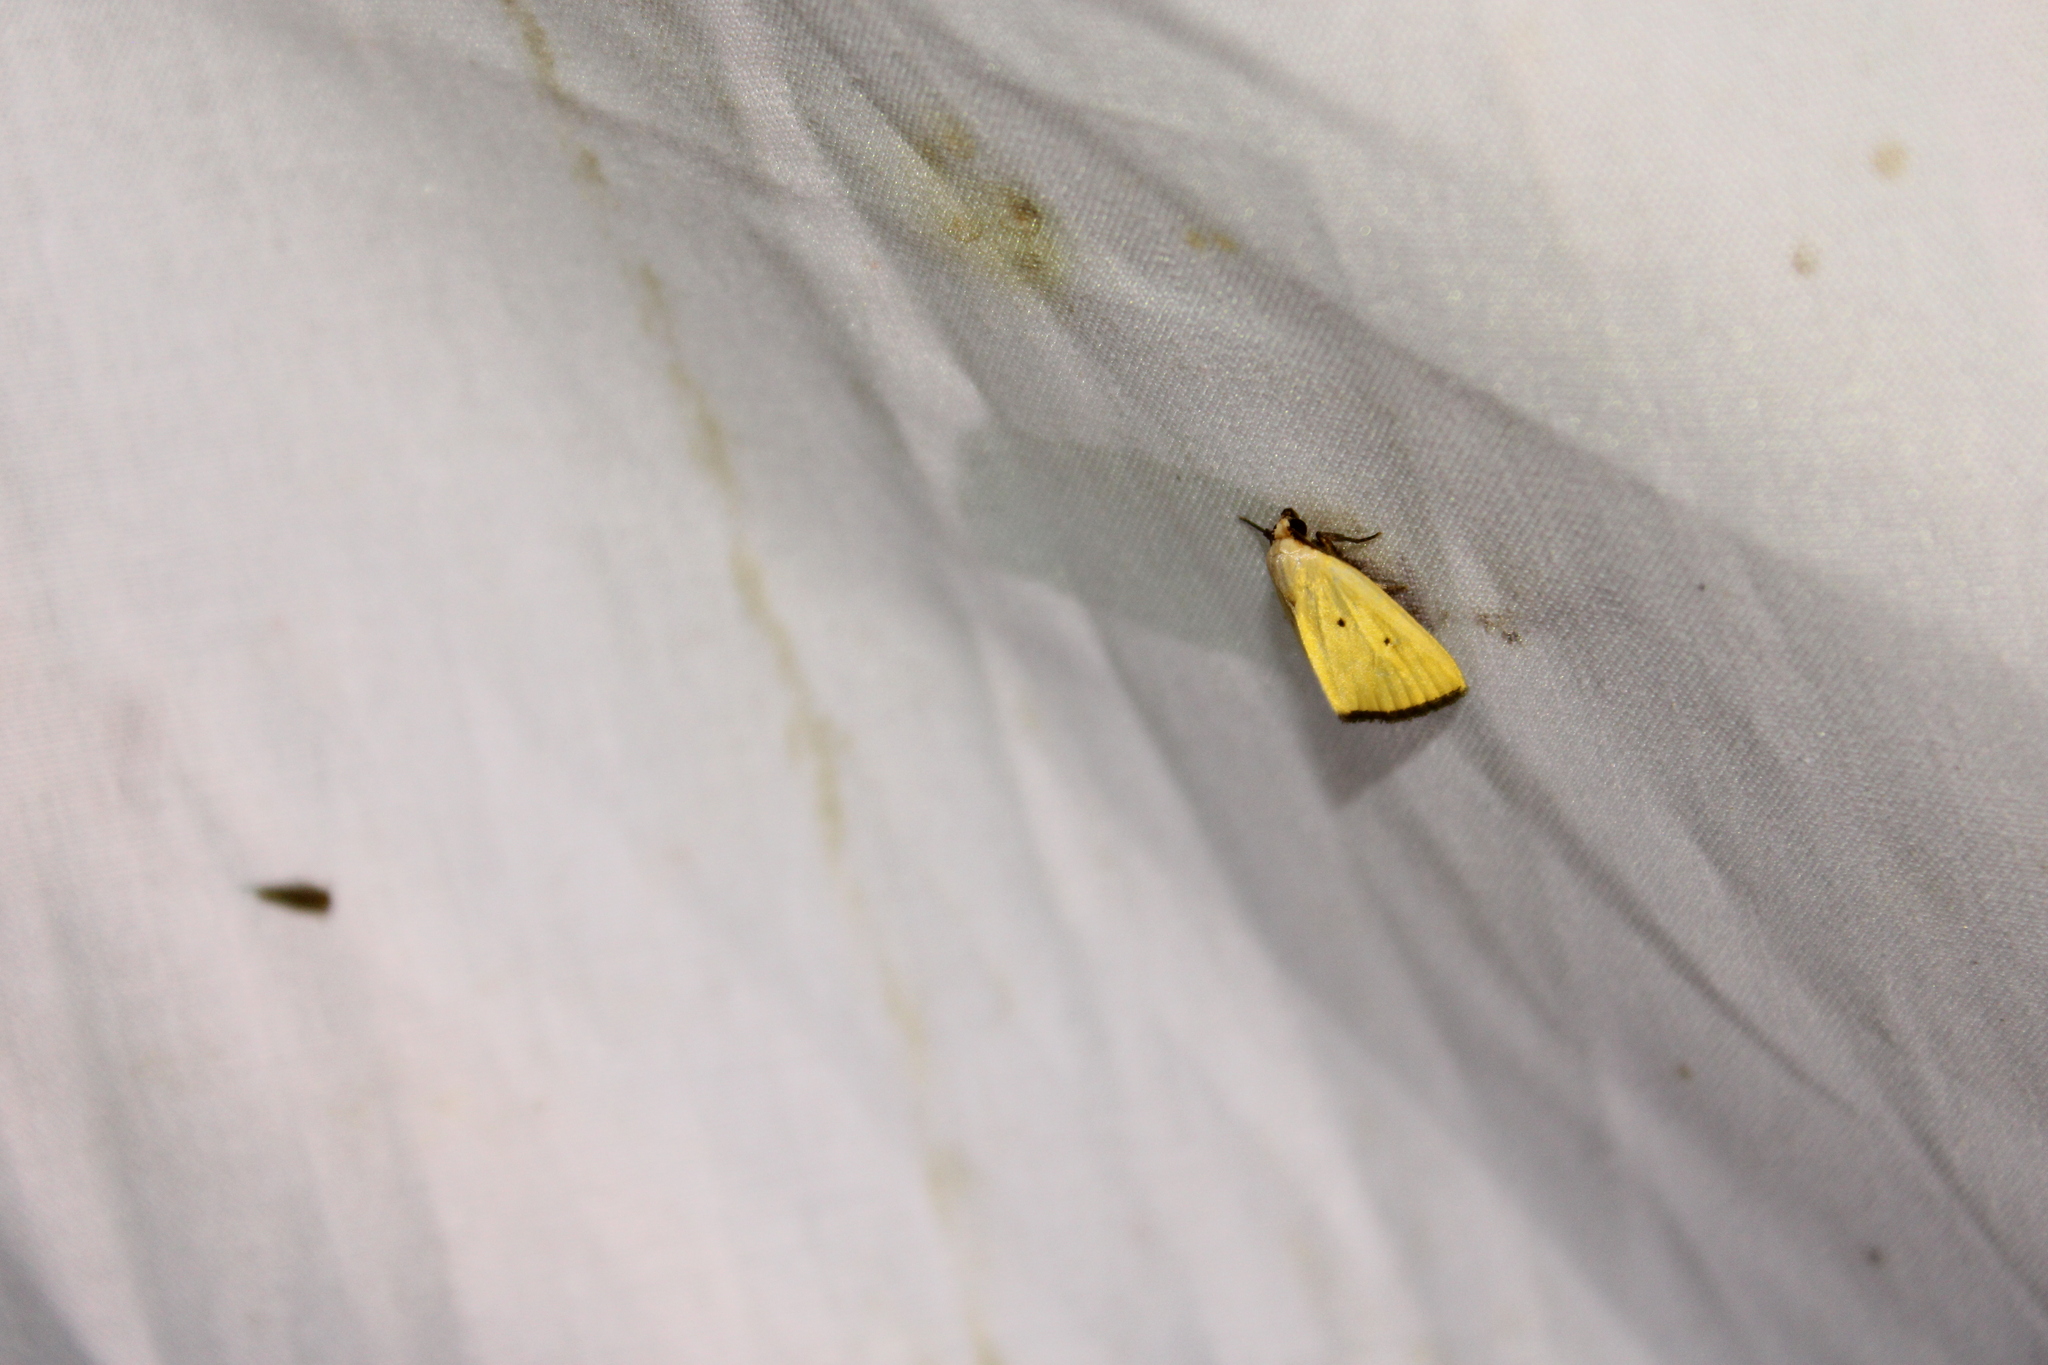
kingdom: Animalia
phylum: Arthropoda
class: Insecta
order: Lepidoptera
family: Noctuidae
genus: Marimatha
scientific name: Marimatha nigrofimbria
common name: Black-bordered lemon moth
